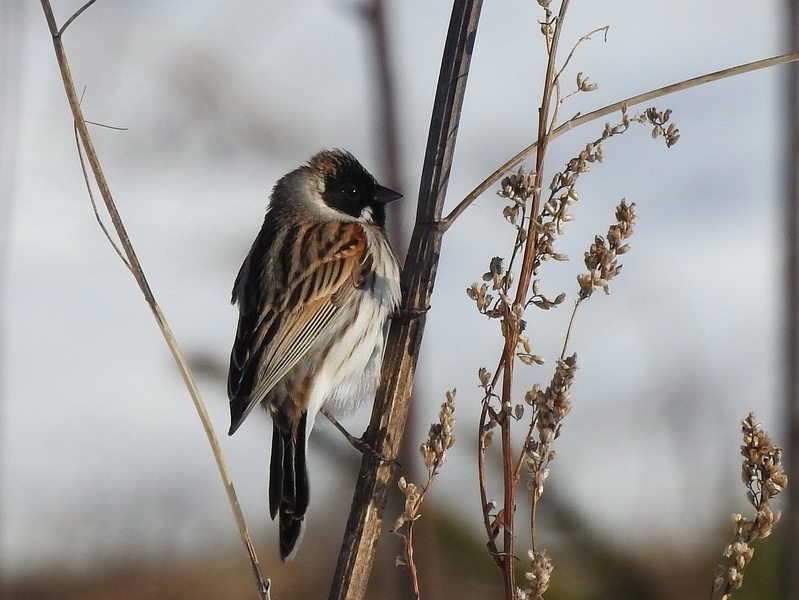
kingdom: Animalia
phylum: Chordata
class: Aves
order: Passeriformes
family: Emberizidae
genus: Emberiza
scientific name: Emberiza schoeniclus
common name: Reed bunting
